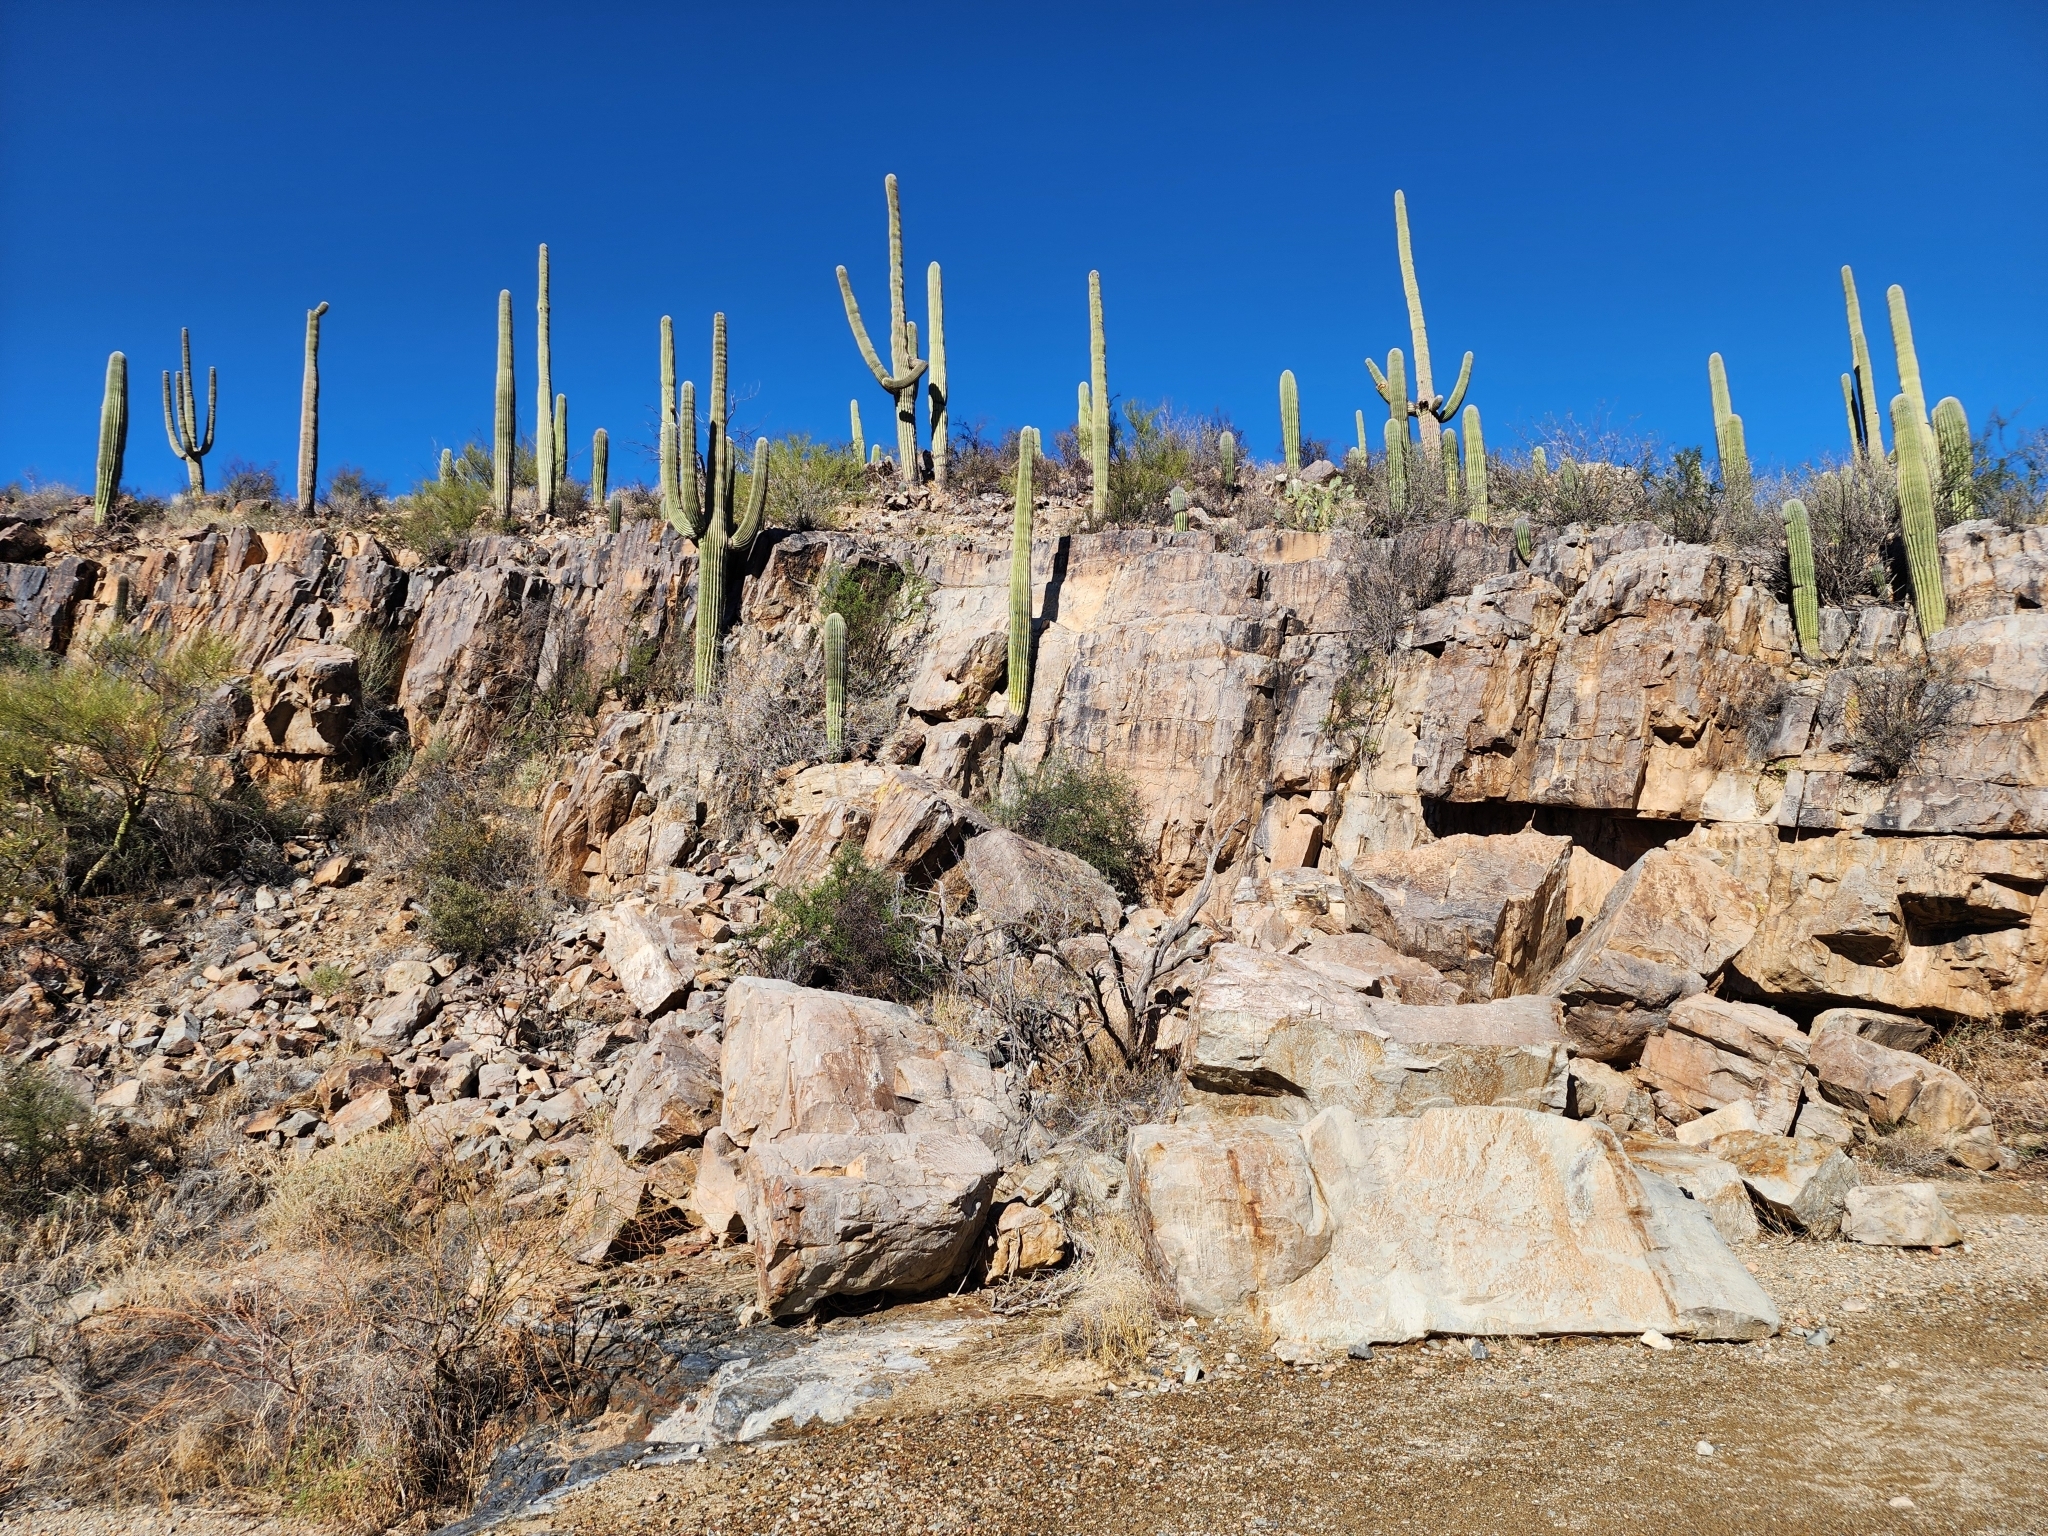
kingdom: Plantae
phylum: Tracheophyta
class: Magnoliopsida
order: Caryophyllales
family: Cactaceae
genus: Carnegiea
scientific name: Carnegiea gigantea
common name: Saguaro
